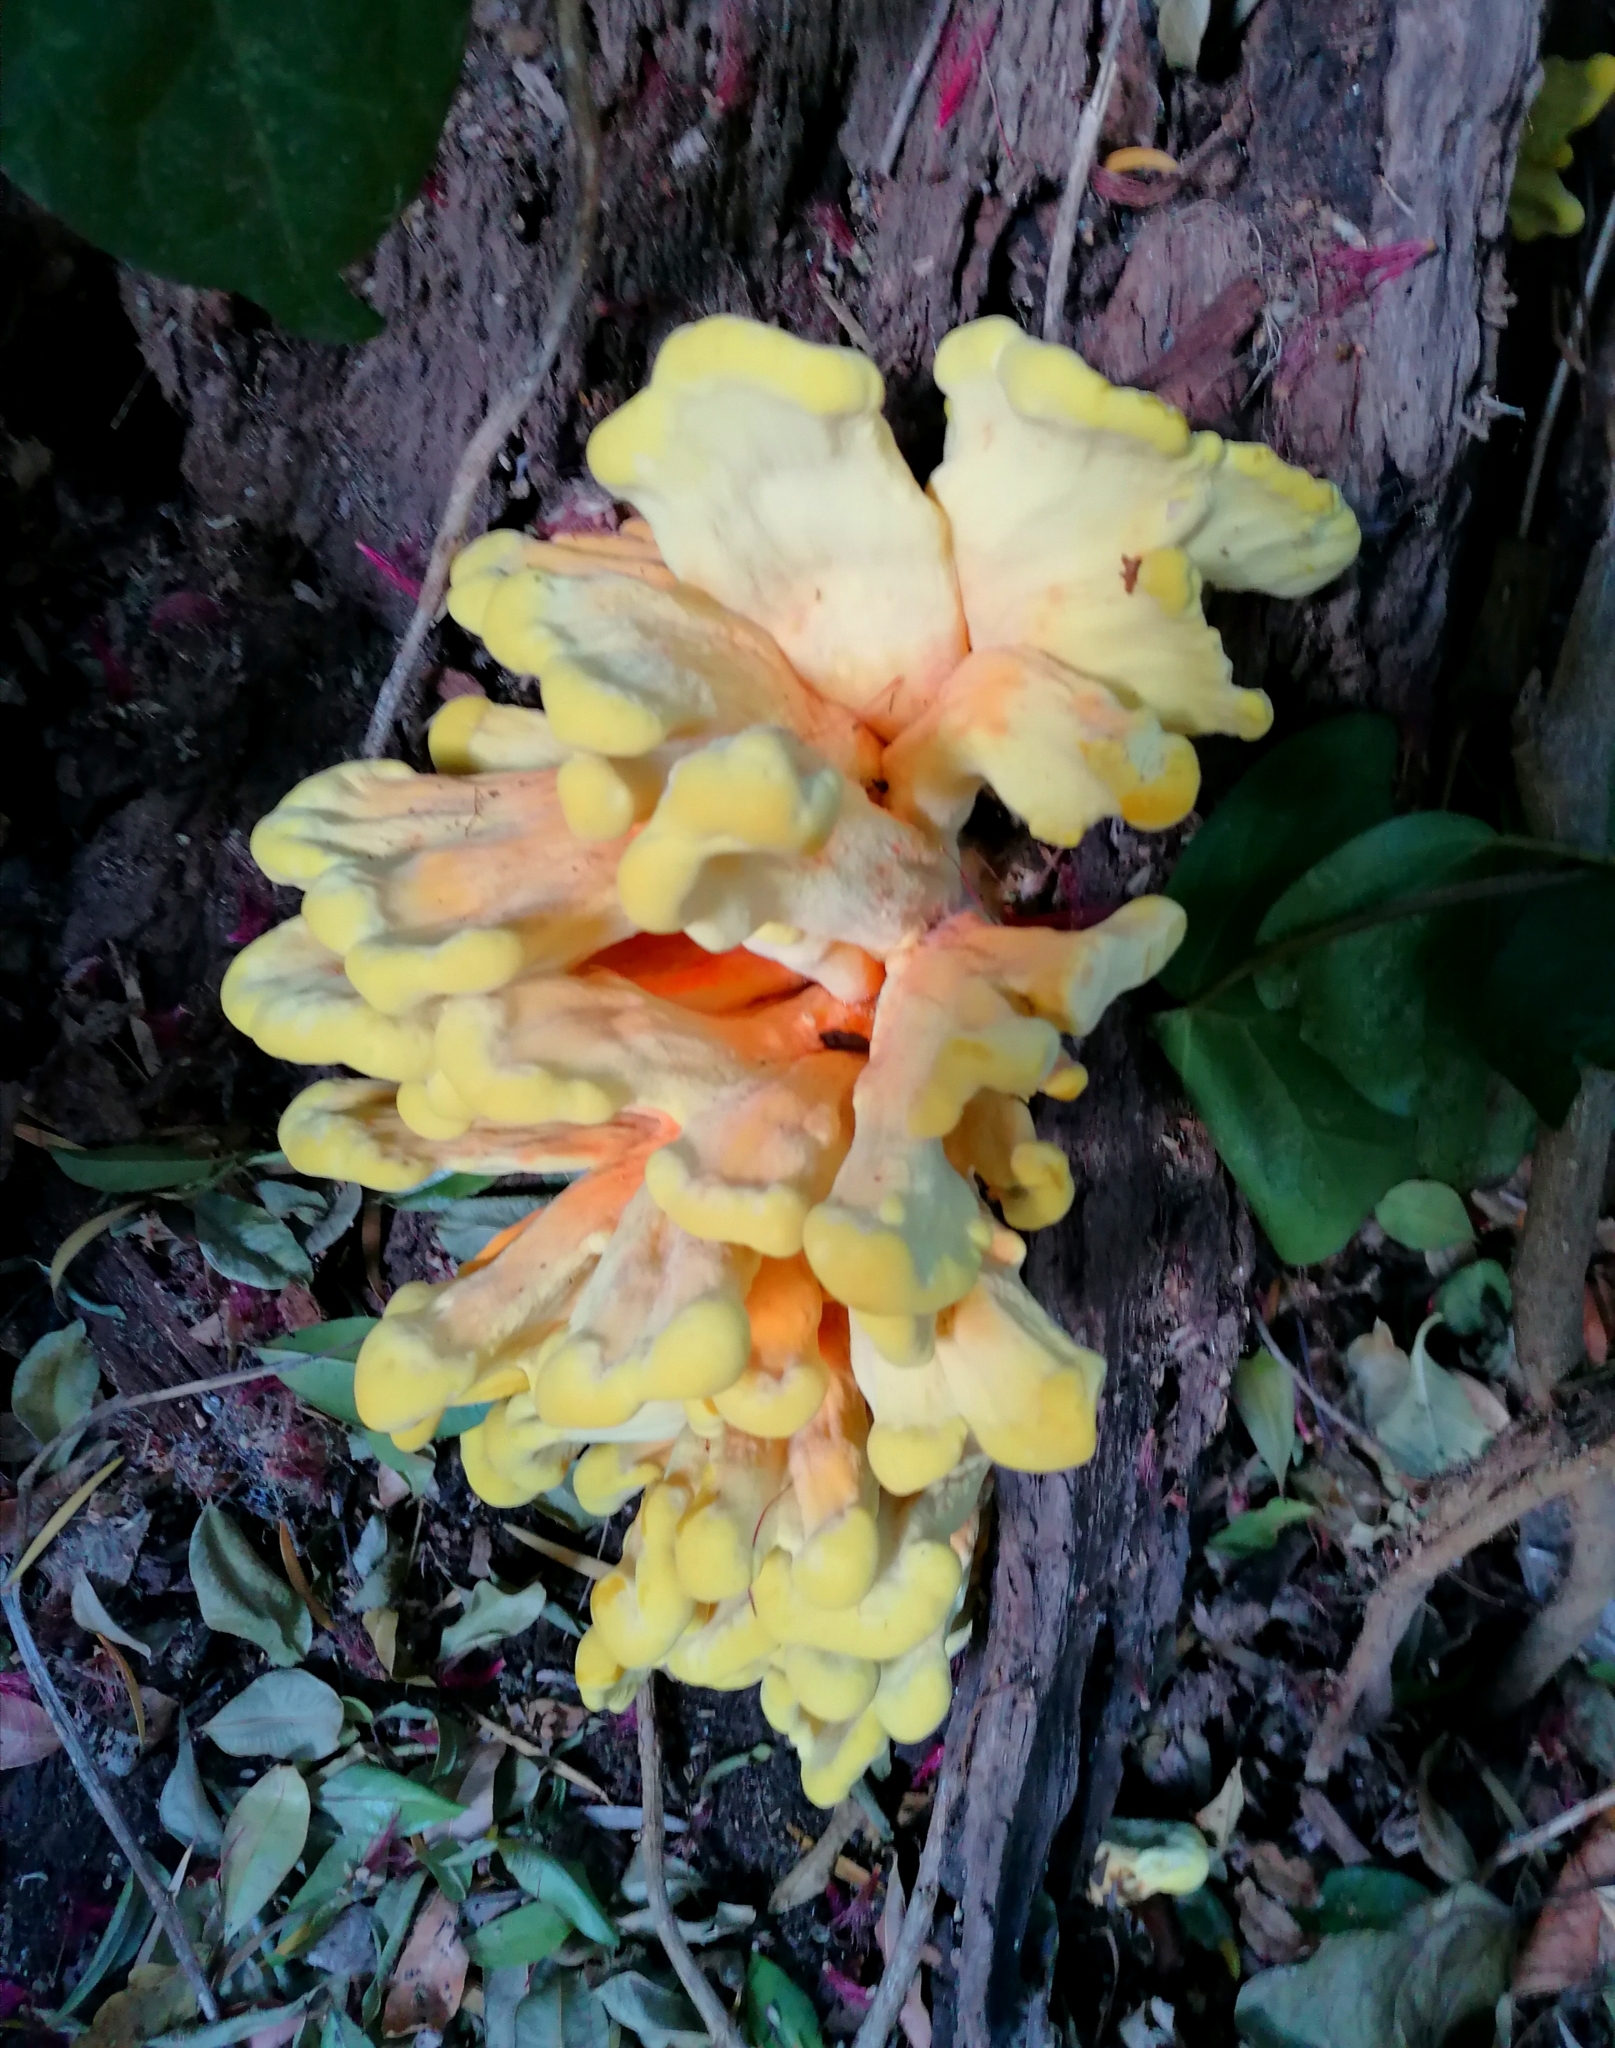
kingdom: Fungi
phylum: Basidiomycota
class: Agaricomycetes
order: Polyporales
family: Laetiporaceae
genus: Laetiporus
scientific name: Laetiporus sulphureus
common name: Chicken of the woods
